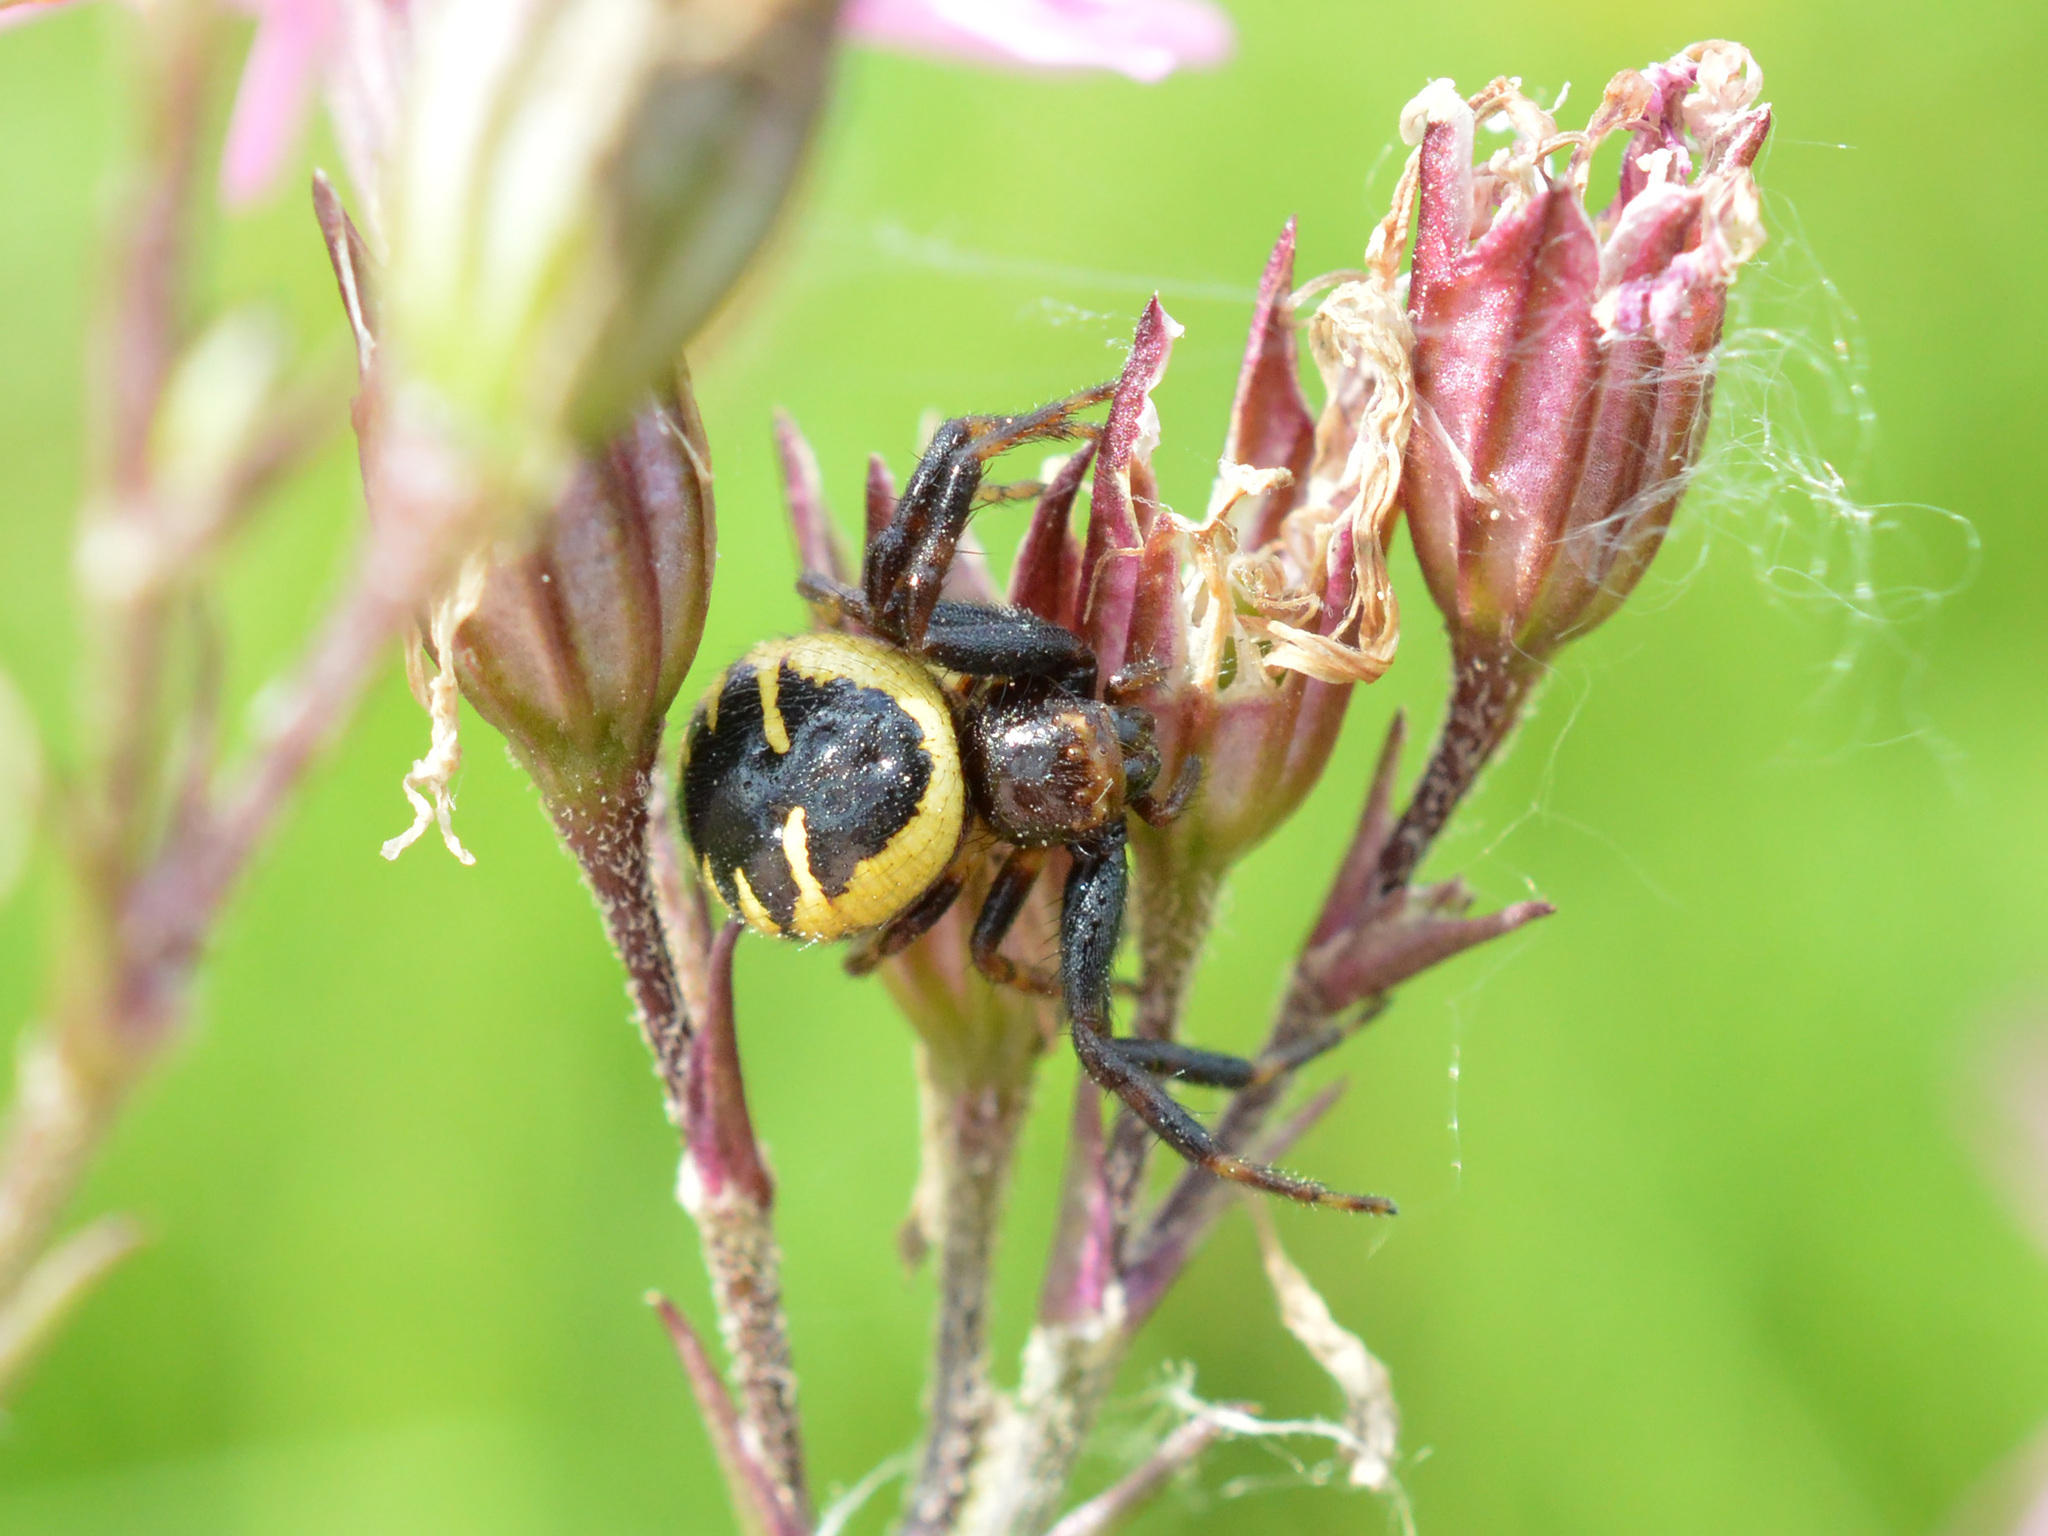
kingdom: Animalia
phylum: Arthropoda
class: Arachnida
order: Araneae
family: Thomisidae
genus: Synema
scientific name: Synema globosum
